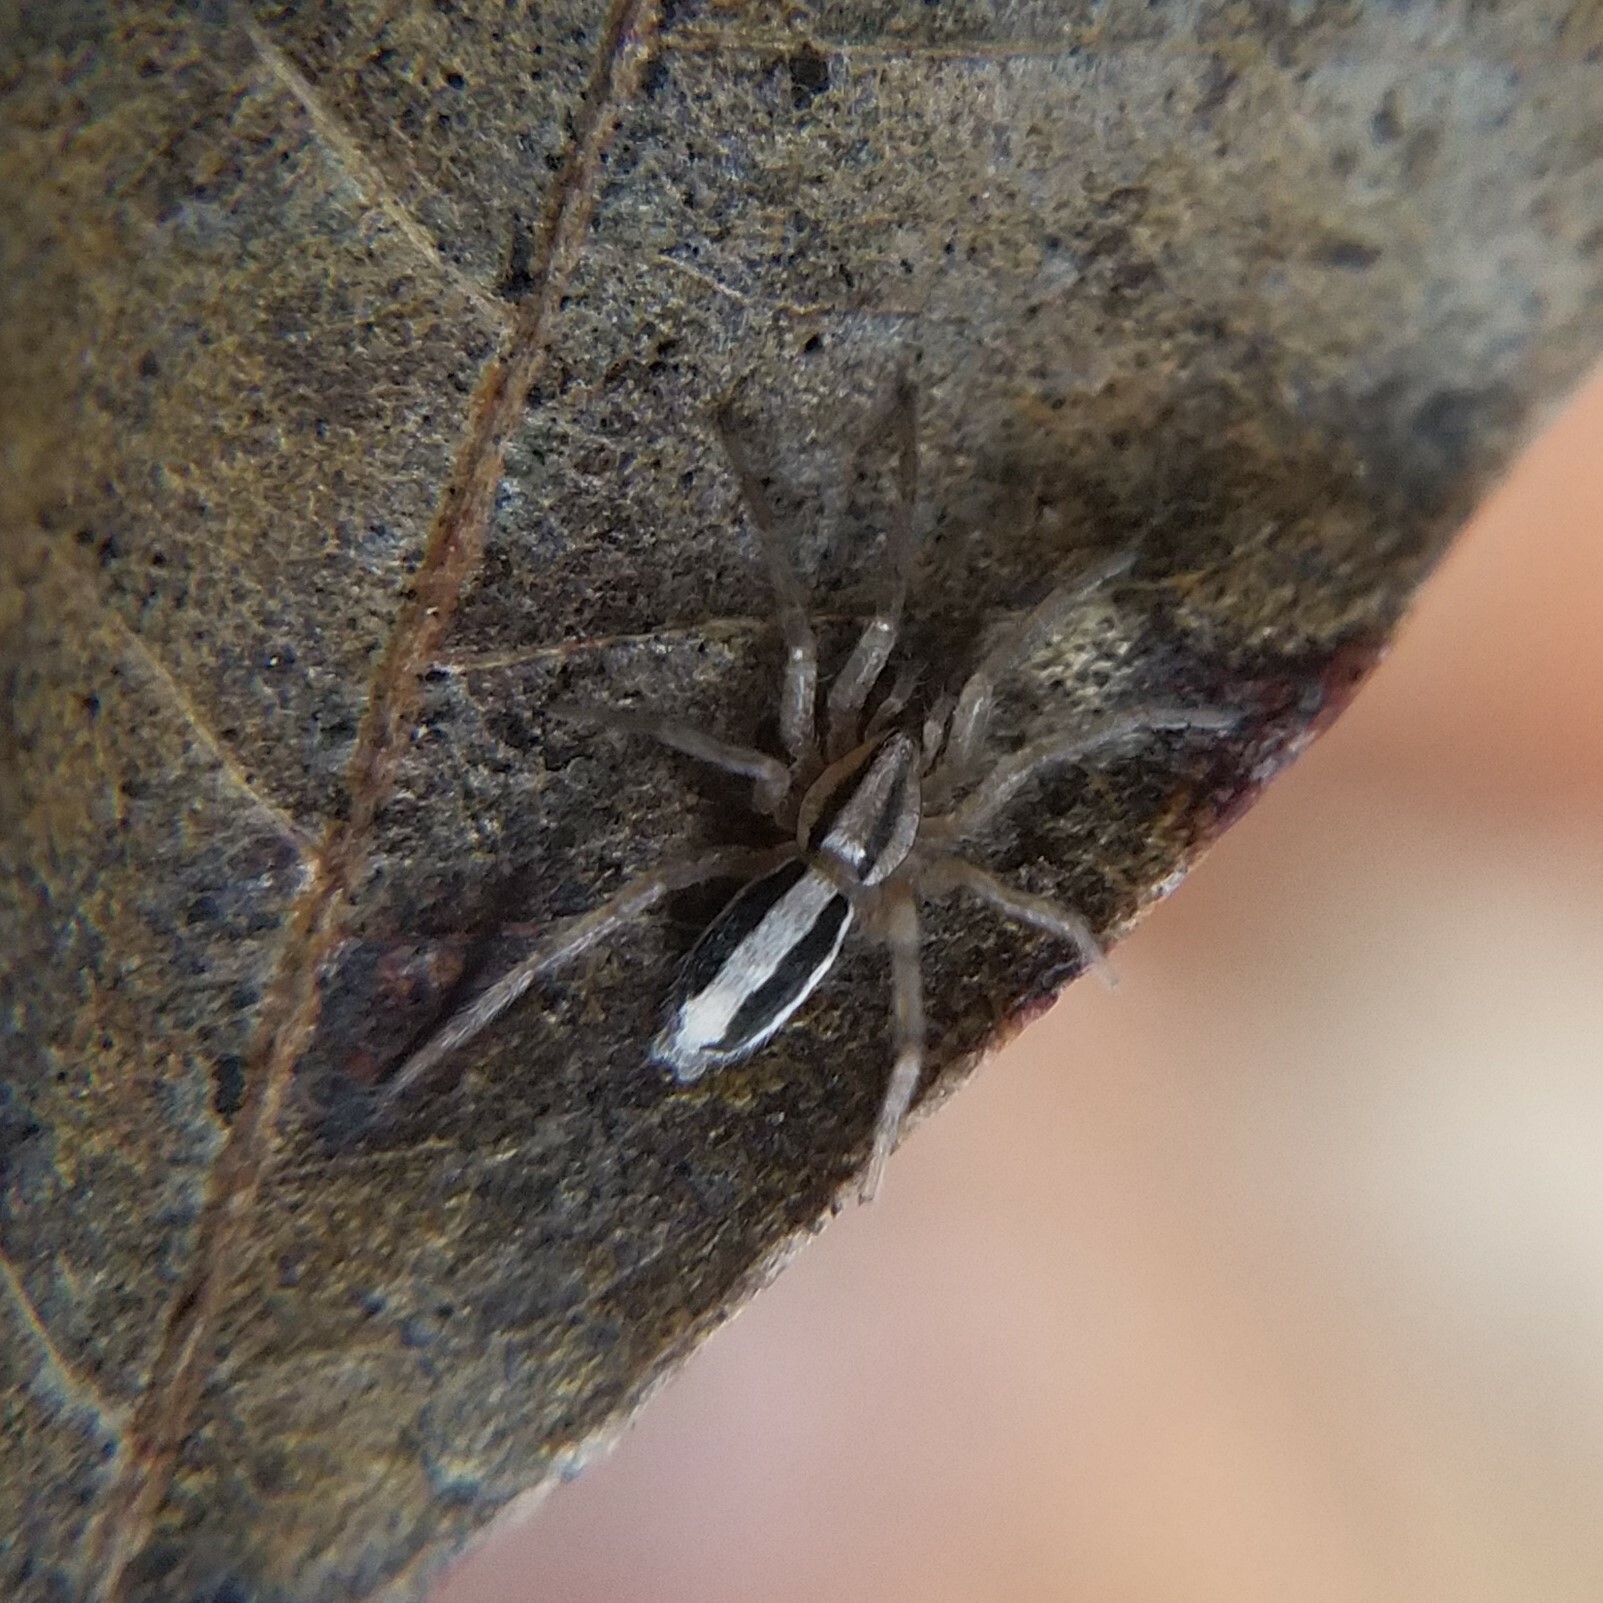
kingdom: Animalia
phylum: Arthropoda
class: Arachnida
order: Araneae
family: Gnaphosidae
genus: Cesonia
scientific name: Cesonia bilineata
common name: Two-lined stealthy ground spider
